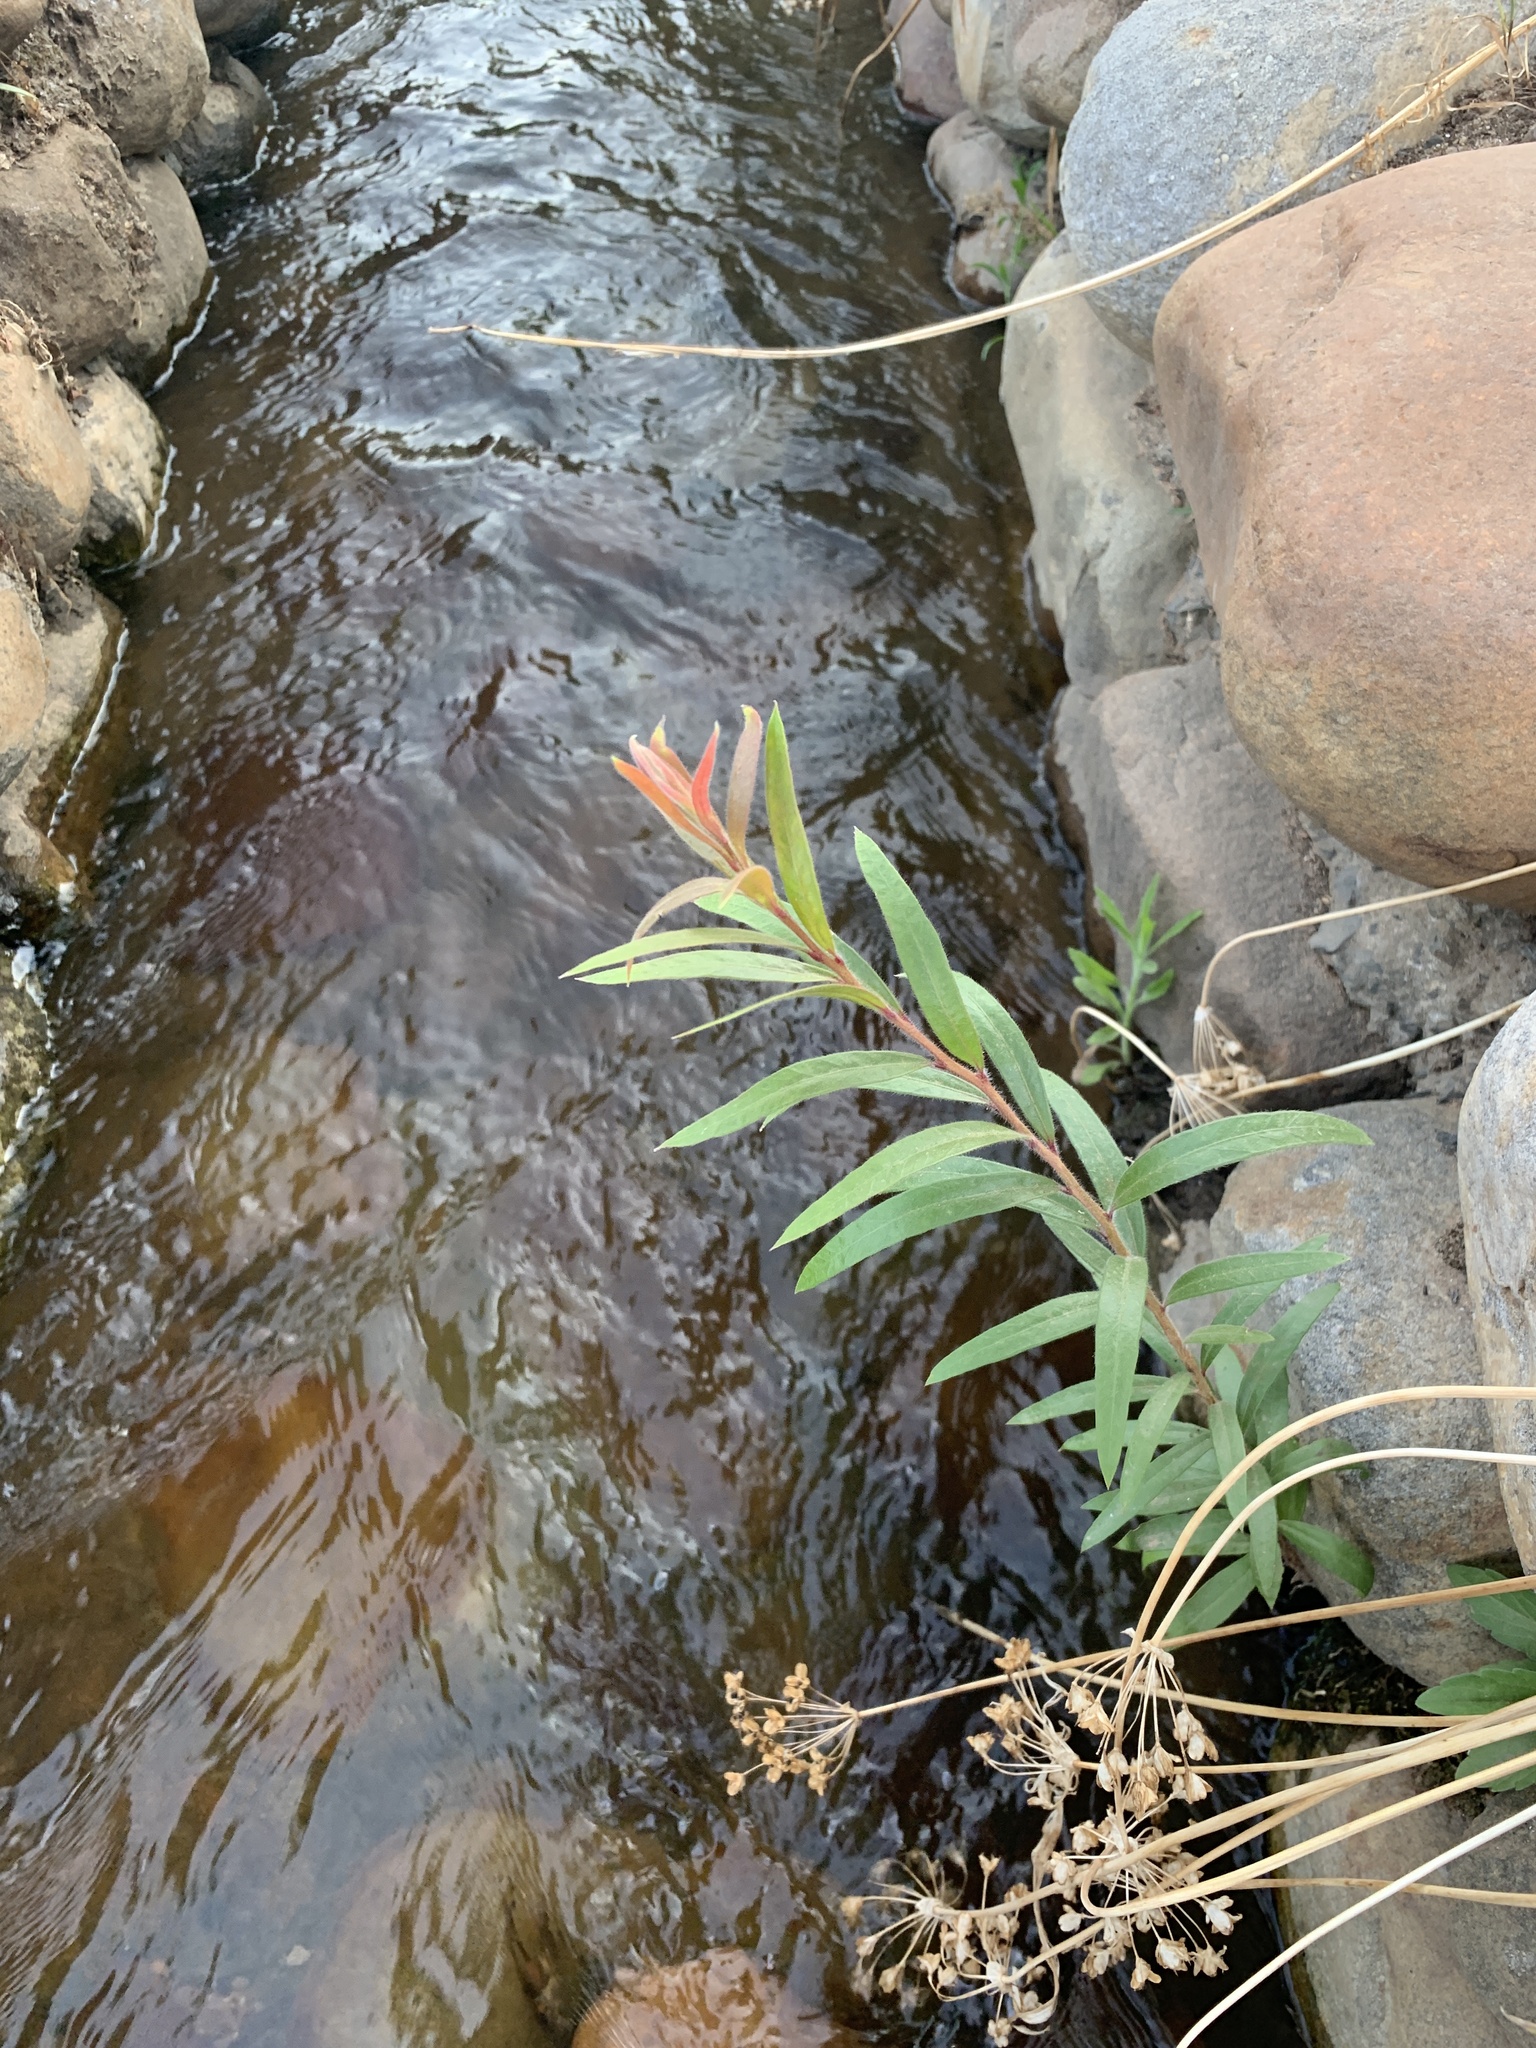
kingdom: Plantae
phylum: Tracheophyta
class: Magnoliopsida
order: Myrtales
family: Myrtaceae
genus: Callistemon
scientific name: Callistemon viminalis
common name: Drooping bottlebrush
